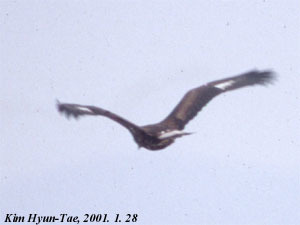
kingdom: Animalia
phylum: Chordata
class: Aves
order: Accipitriformes
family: Accipitridae
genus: Aquila
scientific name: Aquila chrysaetos
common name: Golden eagle
